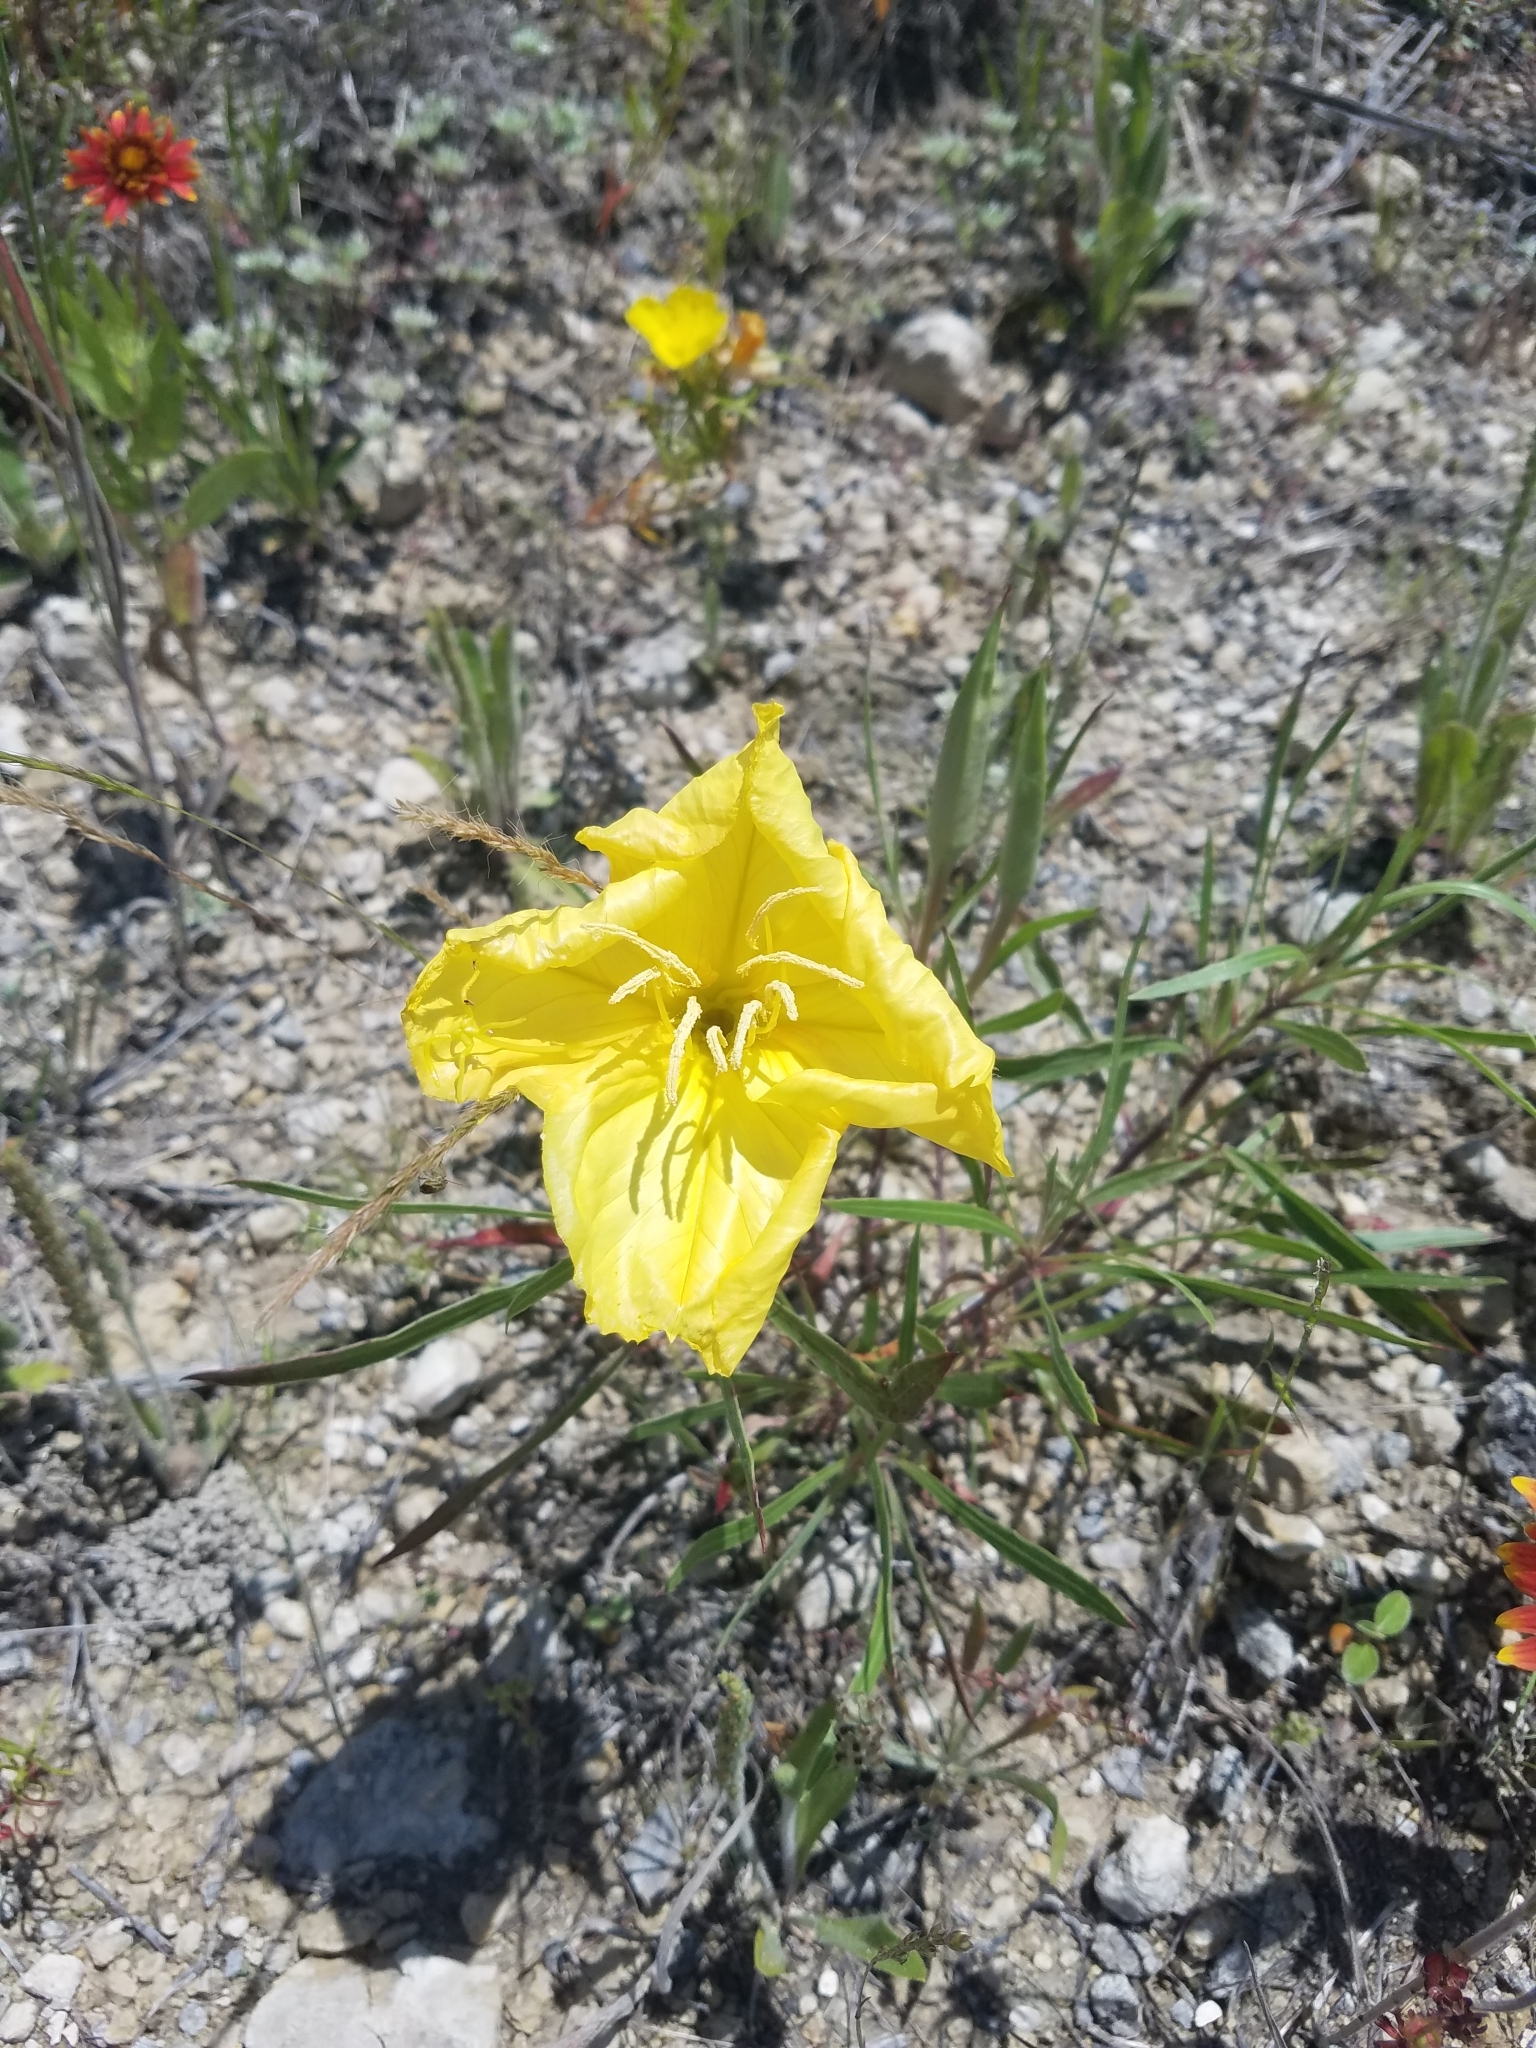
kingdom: Plantae
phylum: Tracheophyta
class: Magnoliopsida
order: Myrtales
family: Onagraceae
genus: Oenothera
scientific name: Oenothera macrocarpa
